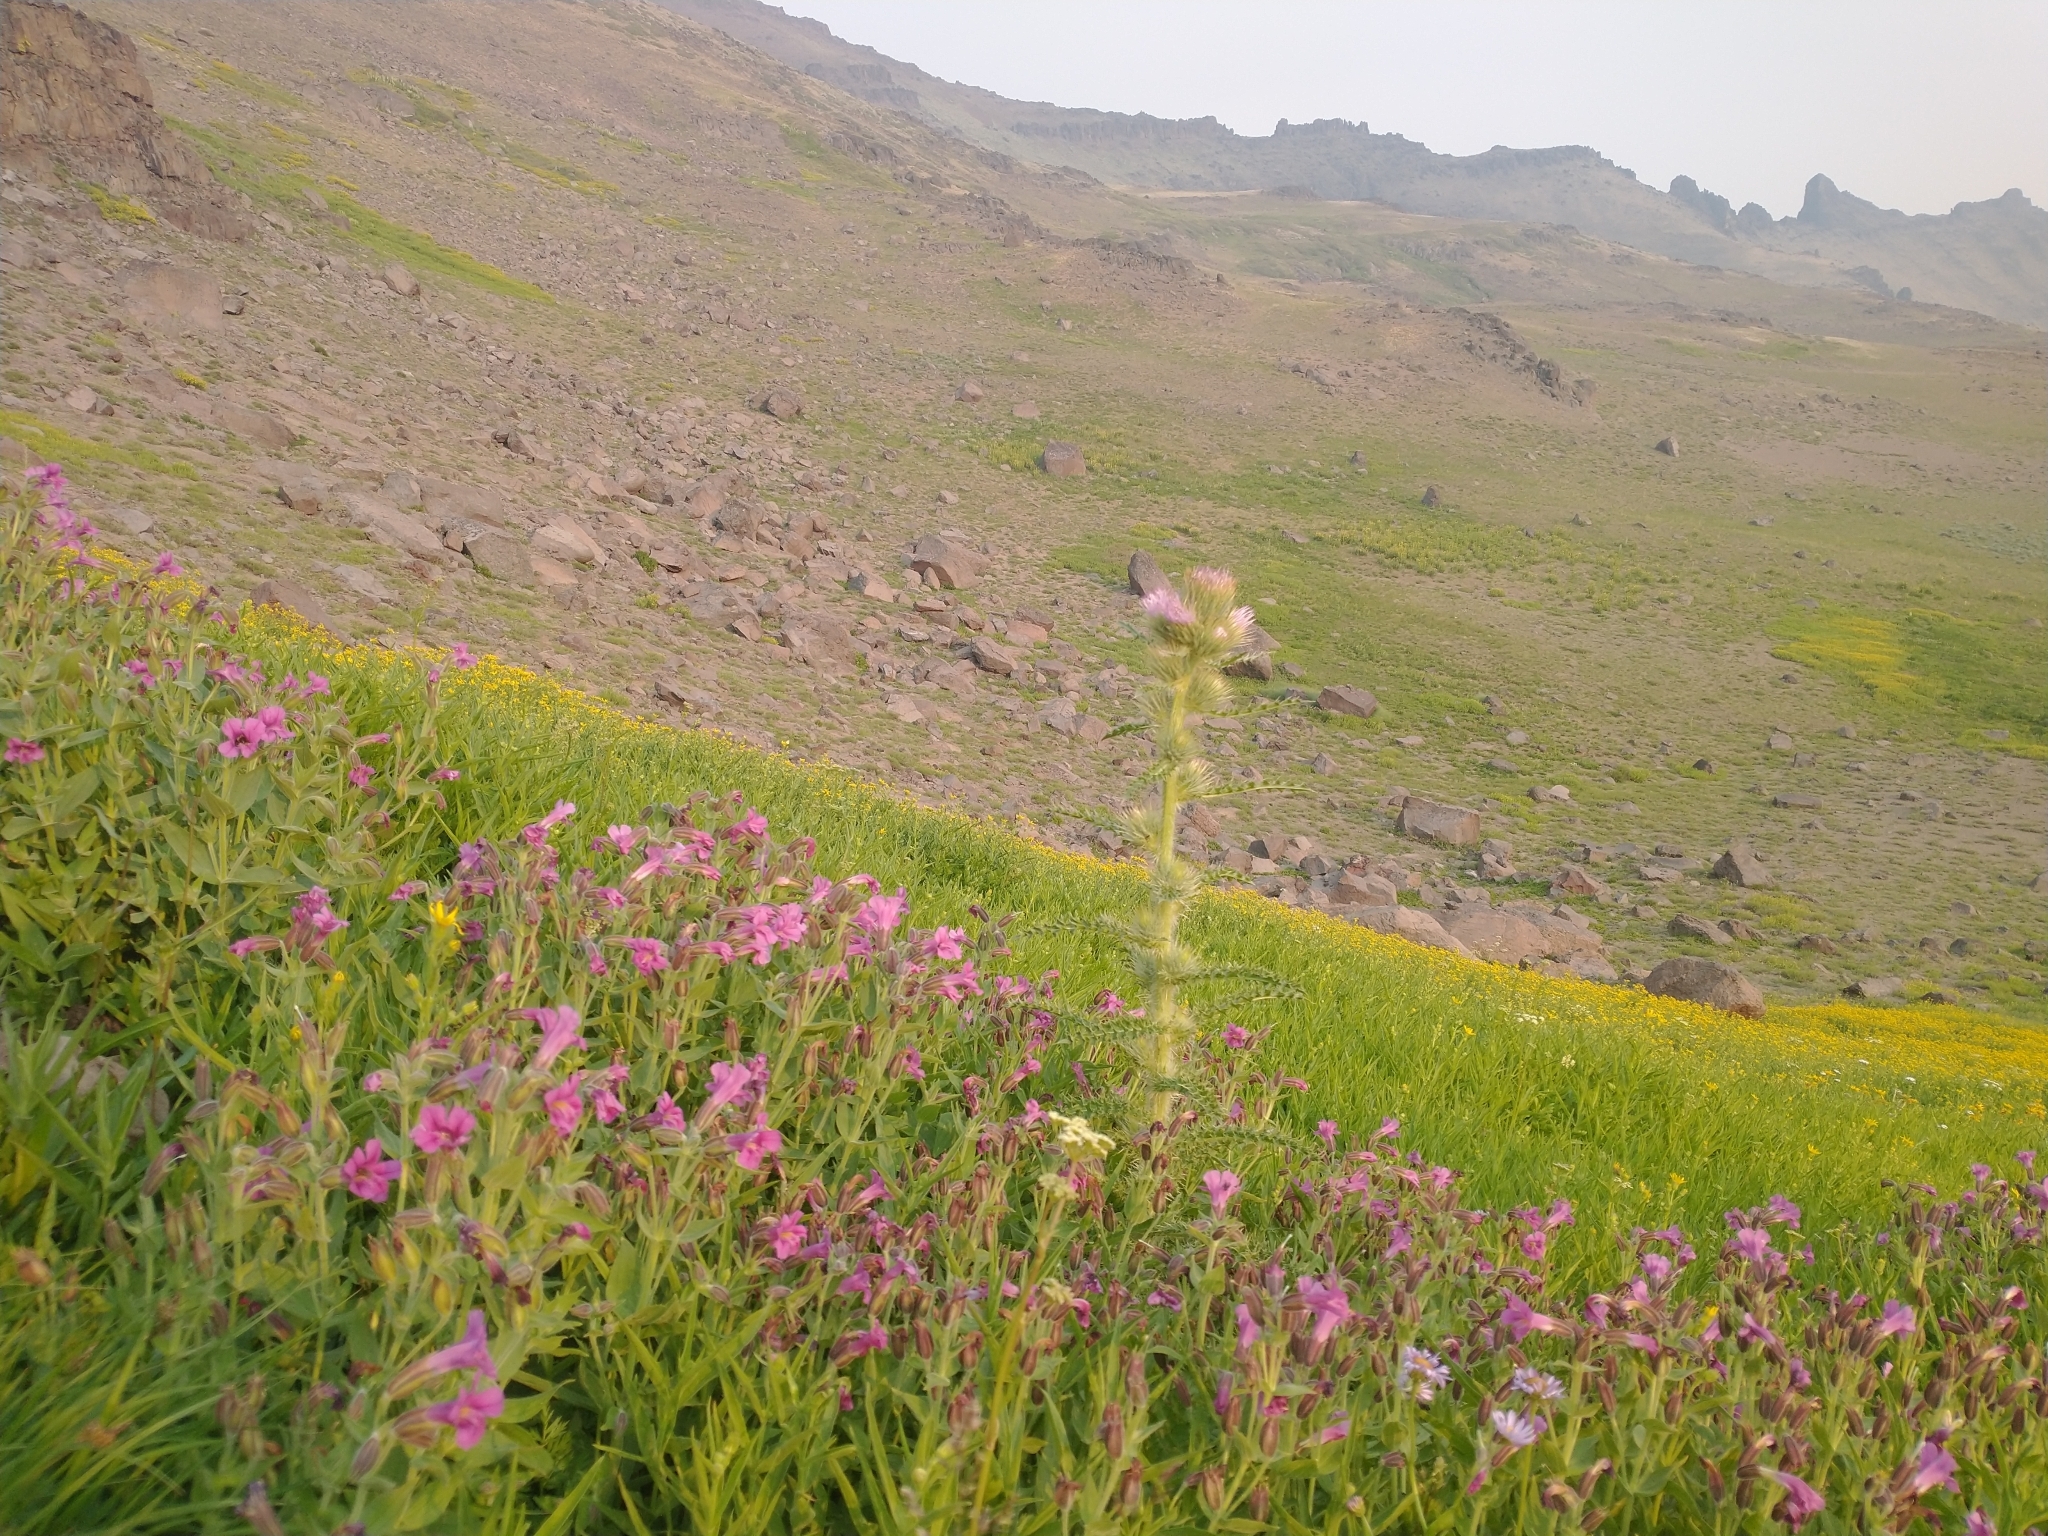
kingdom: Plantae
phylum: Tracheophyta
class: Magnoliopsida
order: Lamiales
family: Phrymaceae
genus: Erythranthe
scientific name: Erythranthe lewisii
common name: Lewis's monkey-flower
